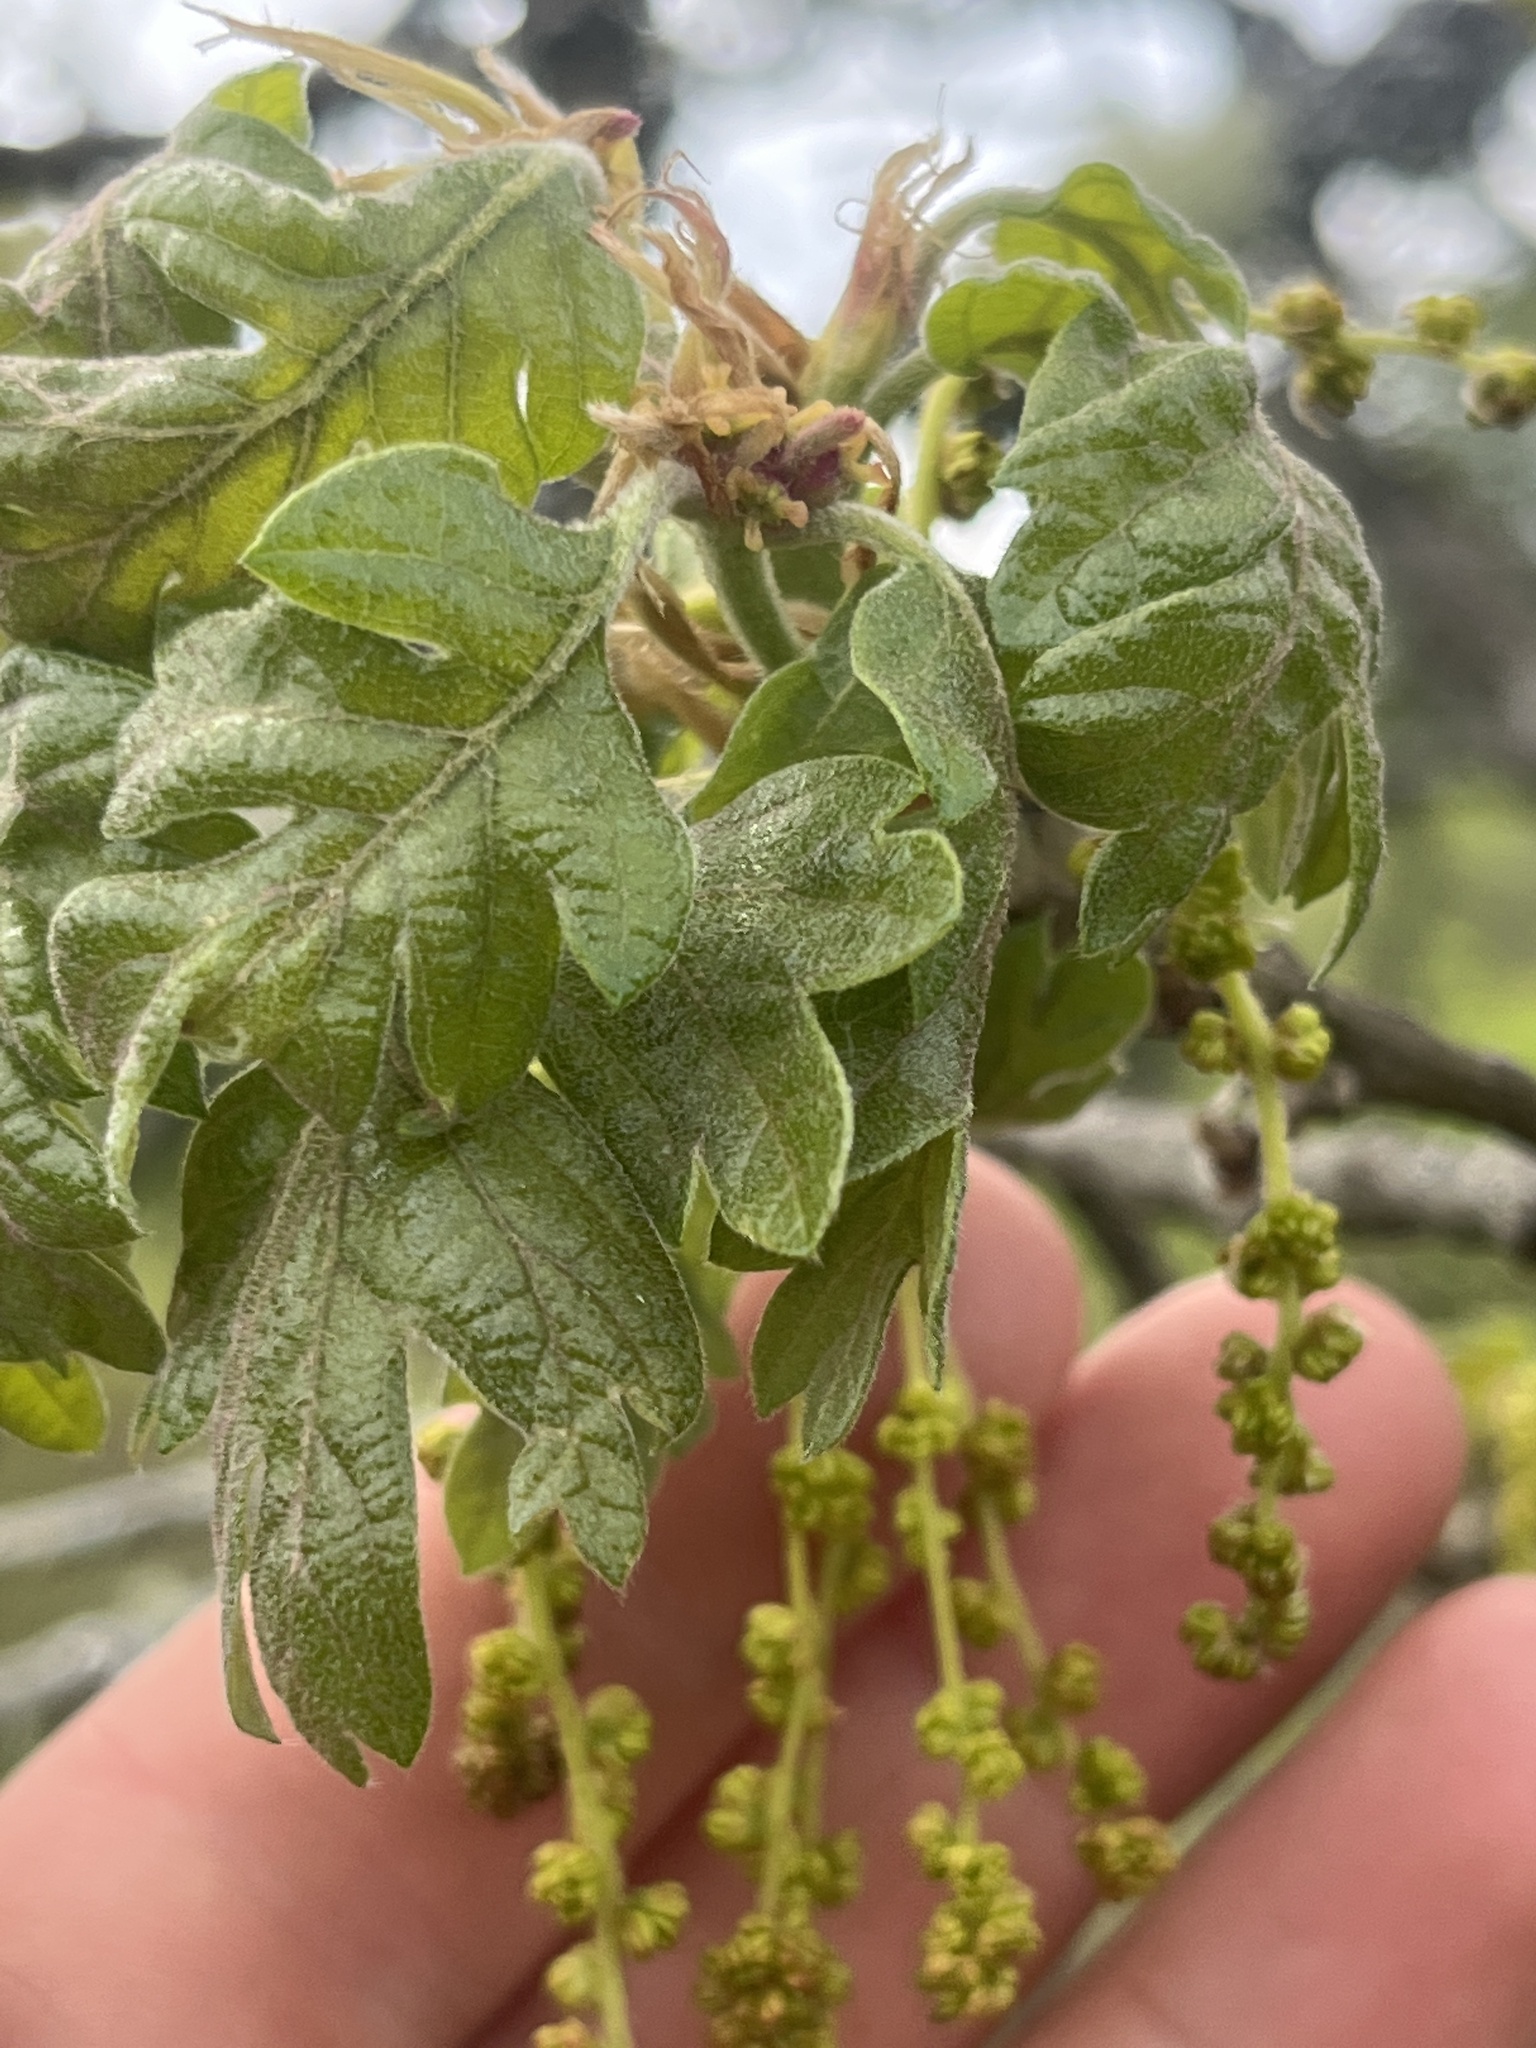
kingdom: Plantae
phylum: Tracheophyta
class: Magnoliopsida
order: Fagales
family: Fagaceae
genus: Quercus
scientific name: Quercus garryana
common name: Garry oak
